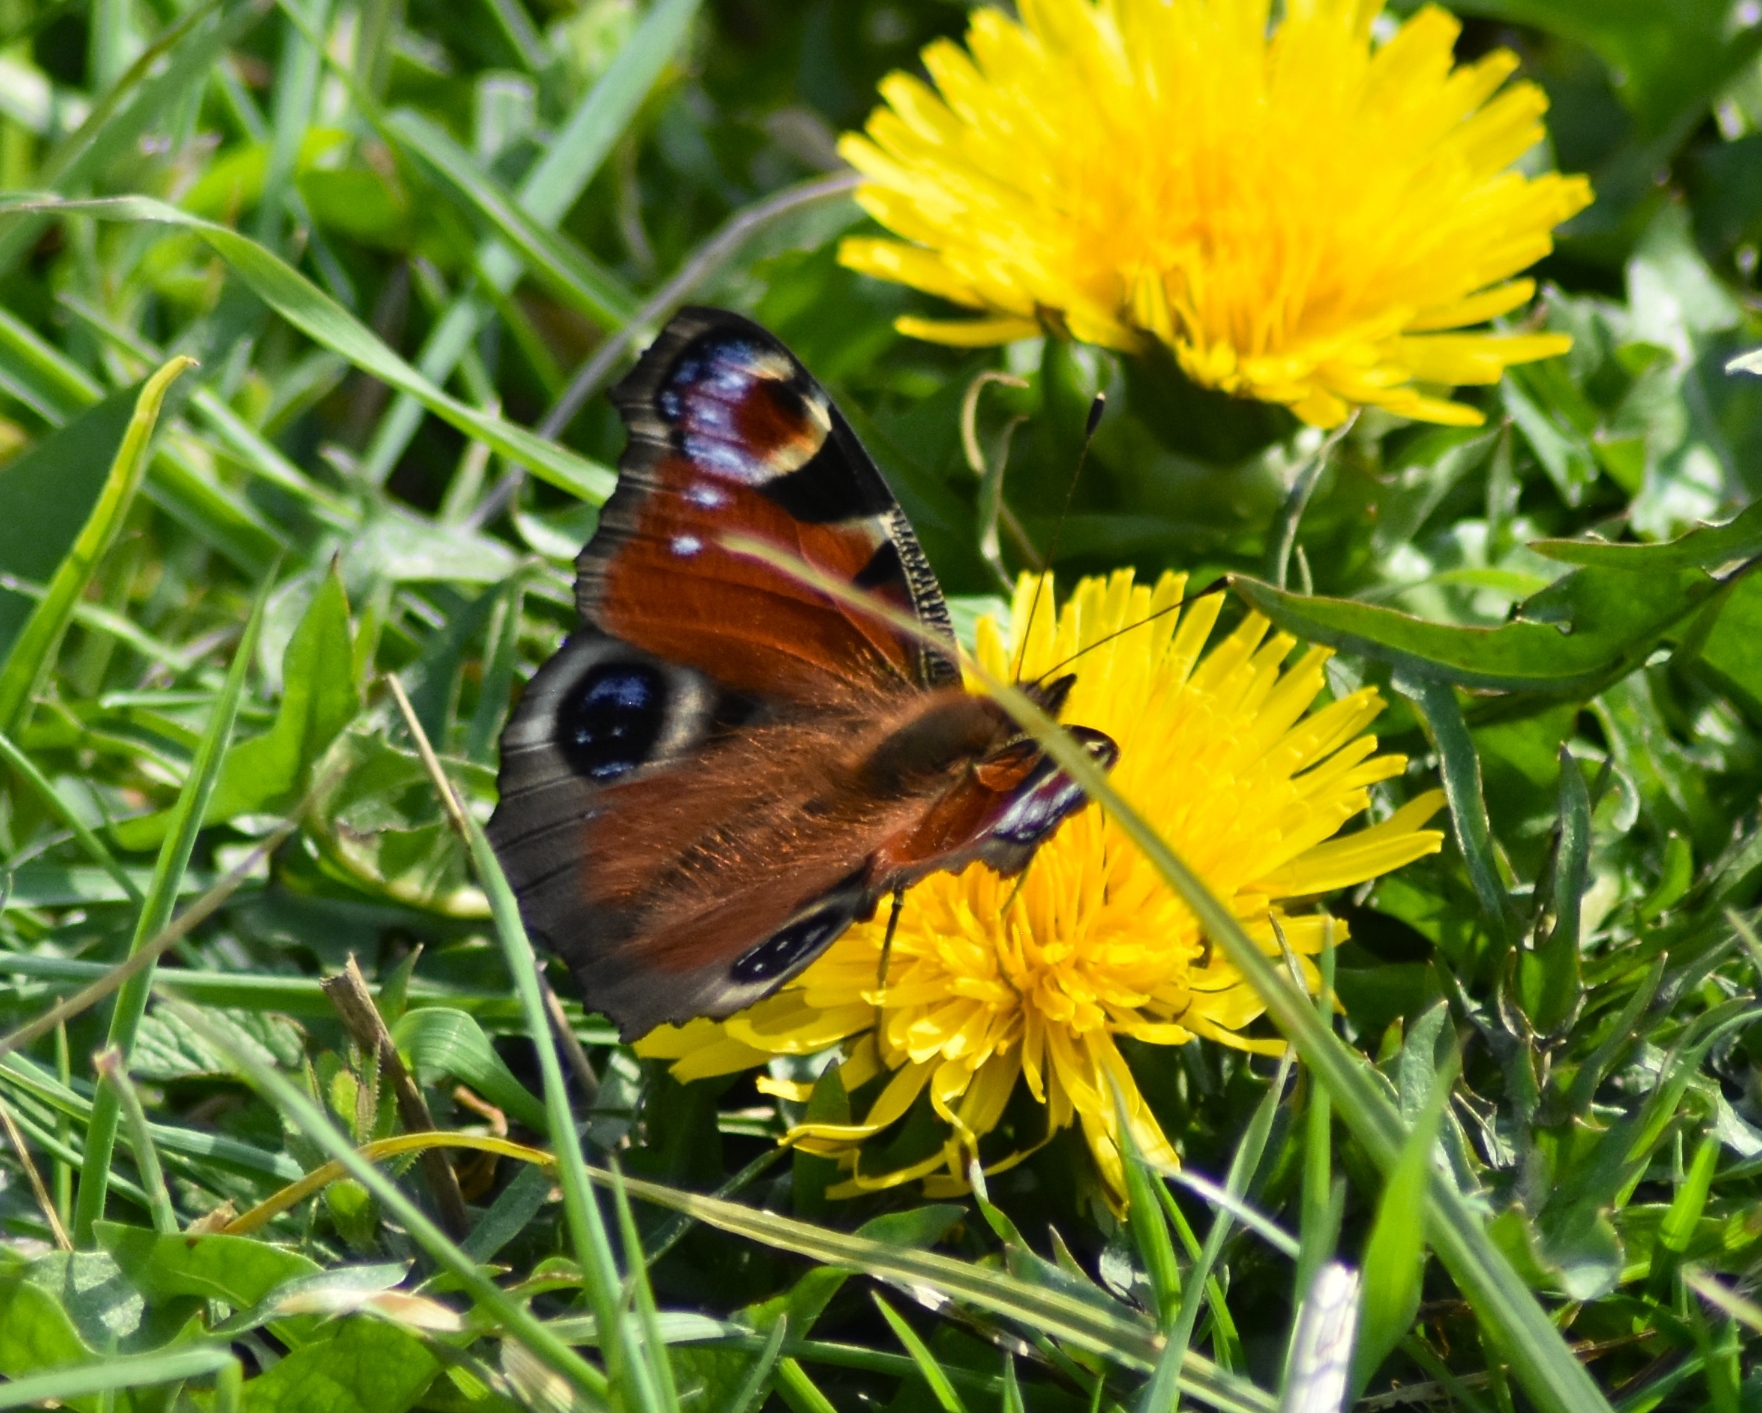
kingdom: Animalia
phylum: Arthropoda
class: Insecta
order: Lepidoptera
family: Nymphalidae
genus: Aglais
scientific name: Aglais io
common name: Peacock
